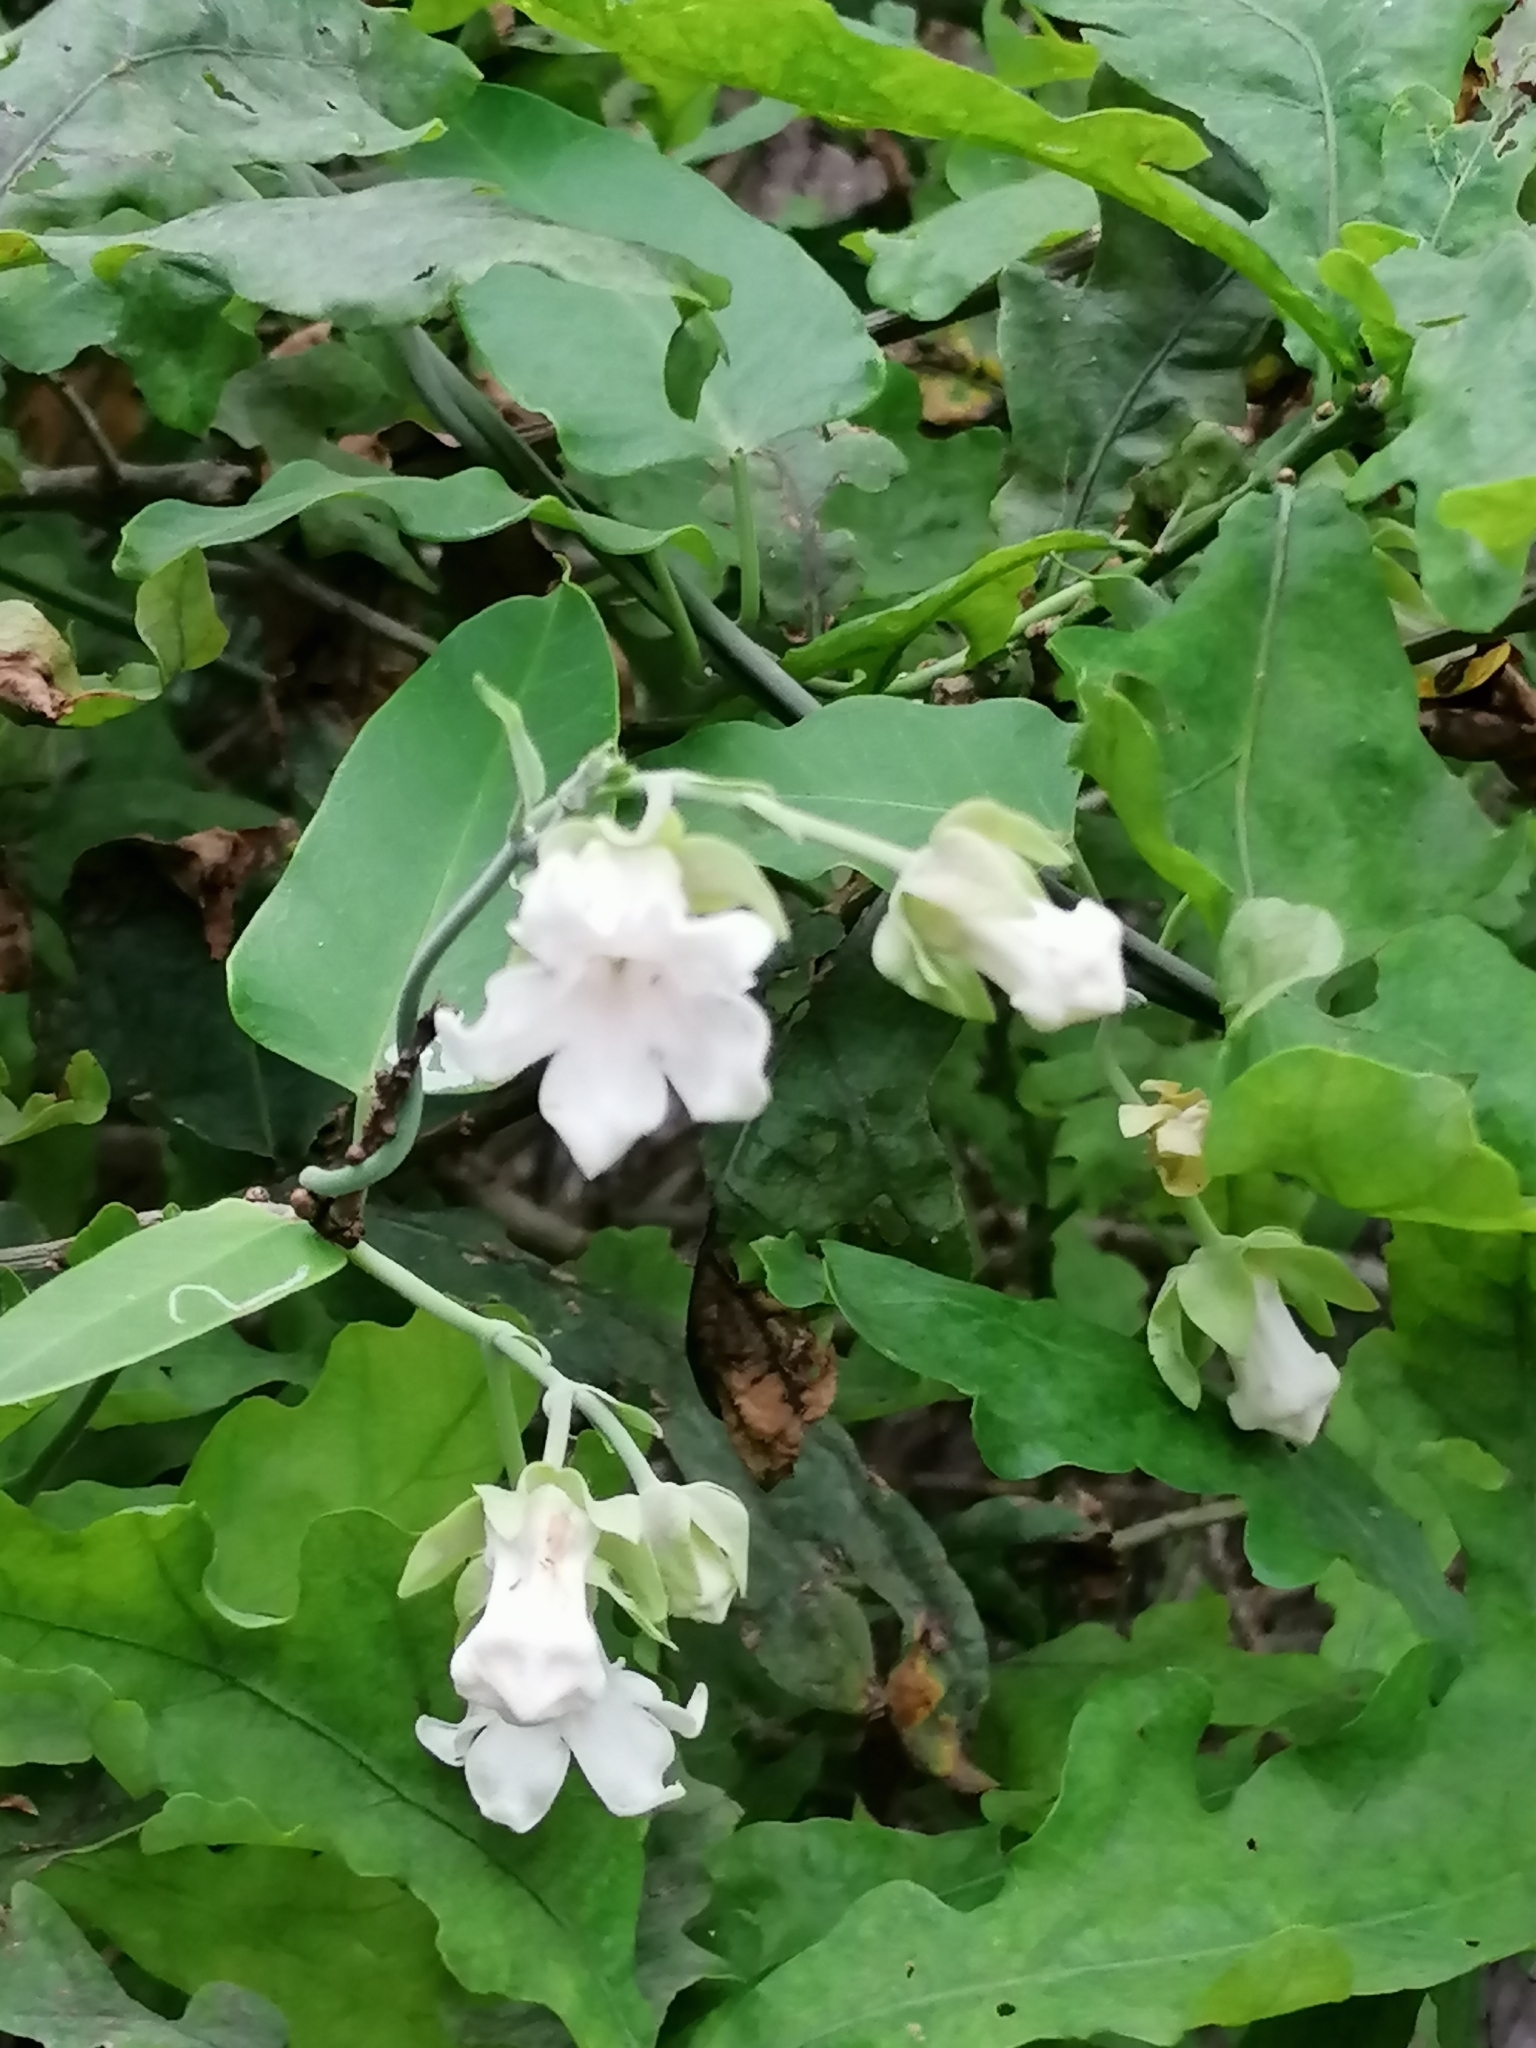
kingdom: Plantae
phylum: Tracheophyta
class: Magnoliopsida
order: Gentianales
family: Apocynaceae
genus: Araujia
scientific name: Araujia sericifera
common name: White bladderflower
